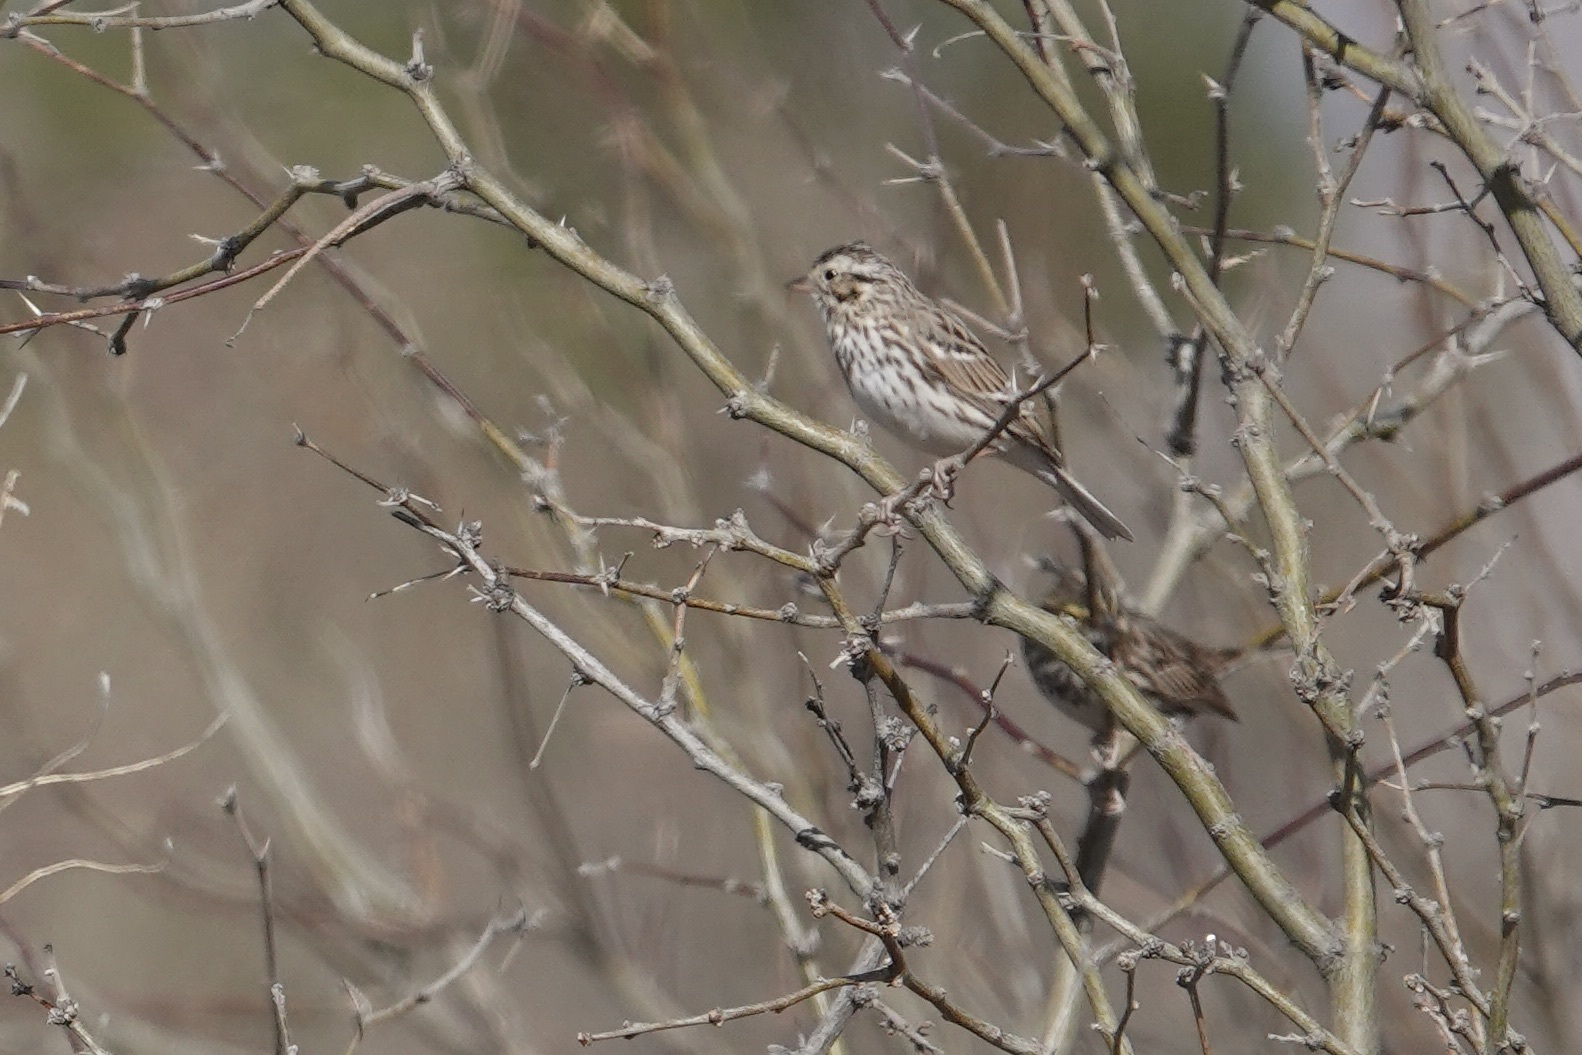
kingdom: Animalia
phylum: Chordata
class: Aves
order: Passeriformes
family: Passerellidae
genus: Passerculus
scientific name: Passerculus sandwichensis
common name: Savannah sparrow
